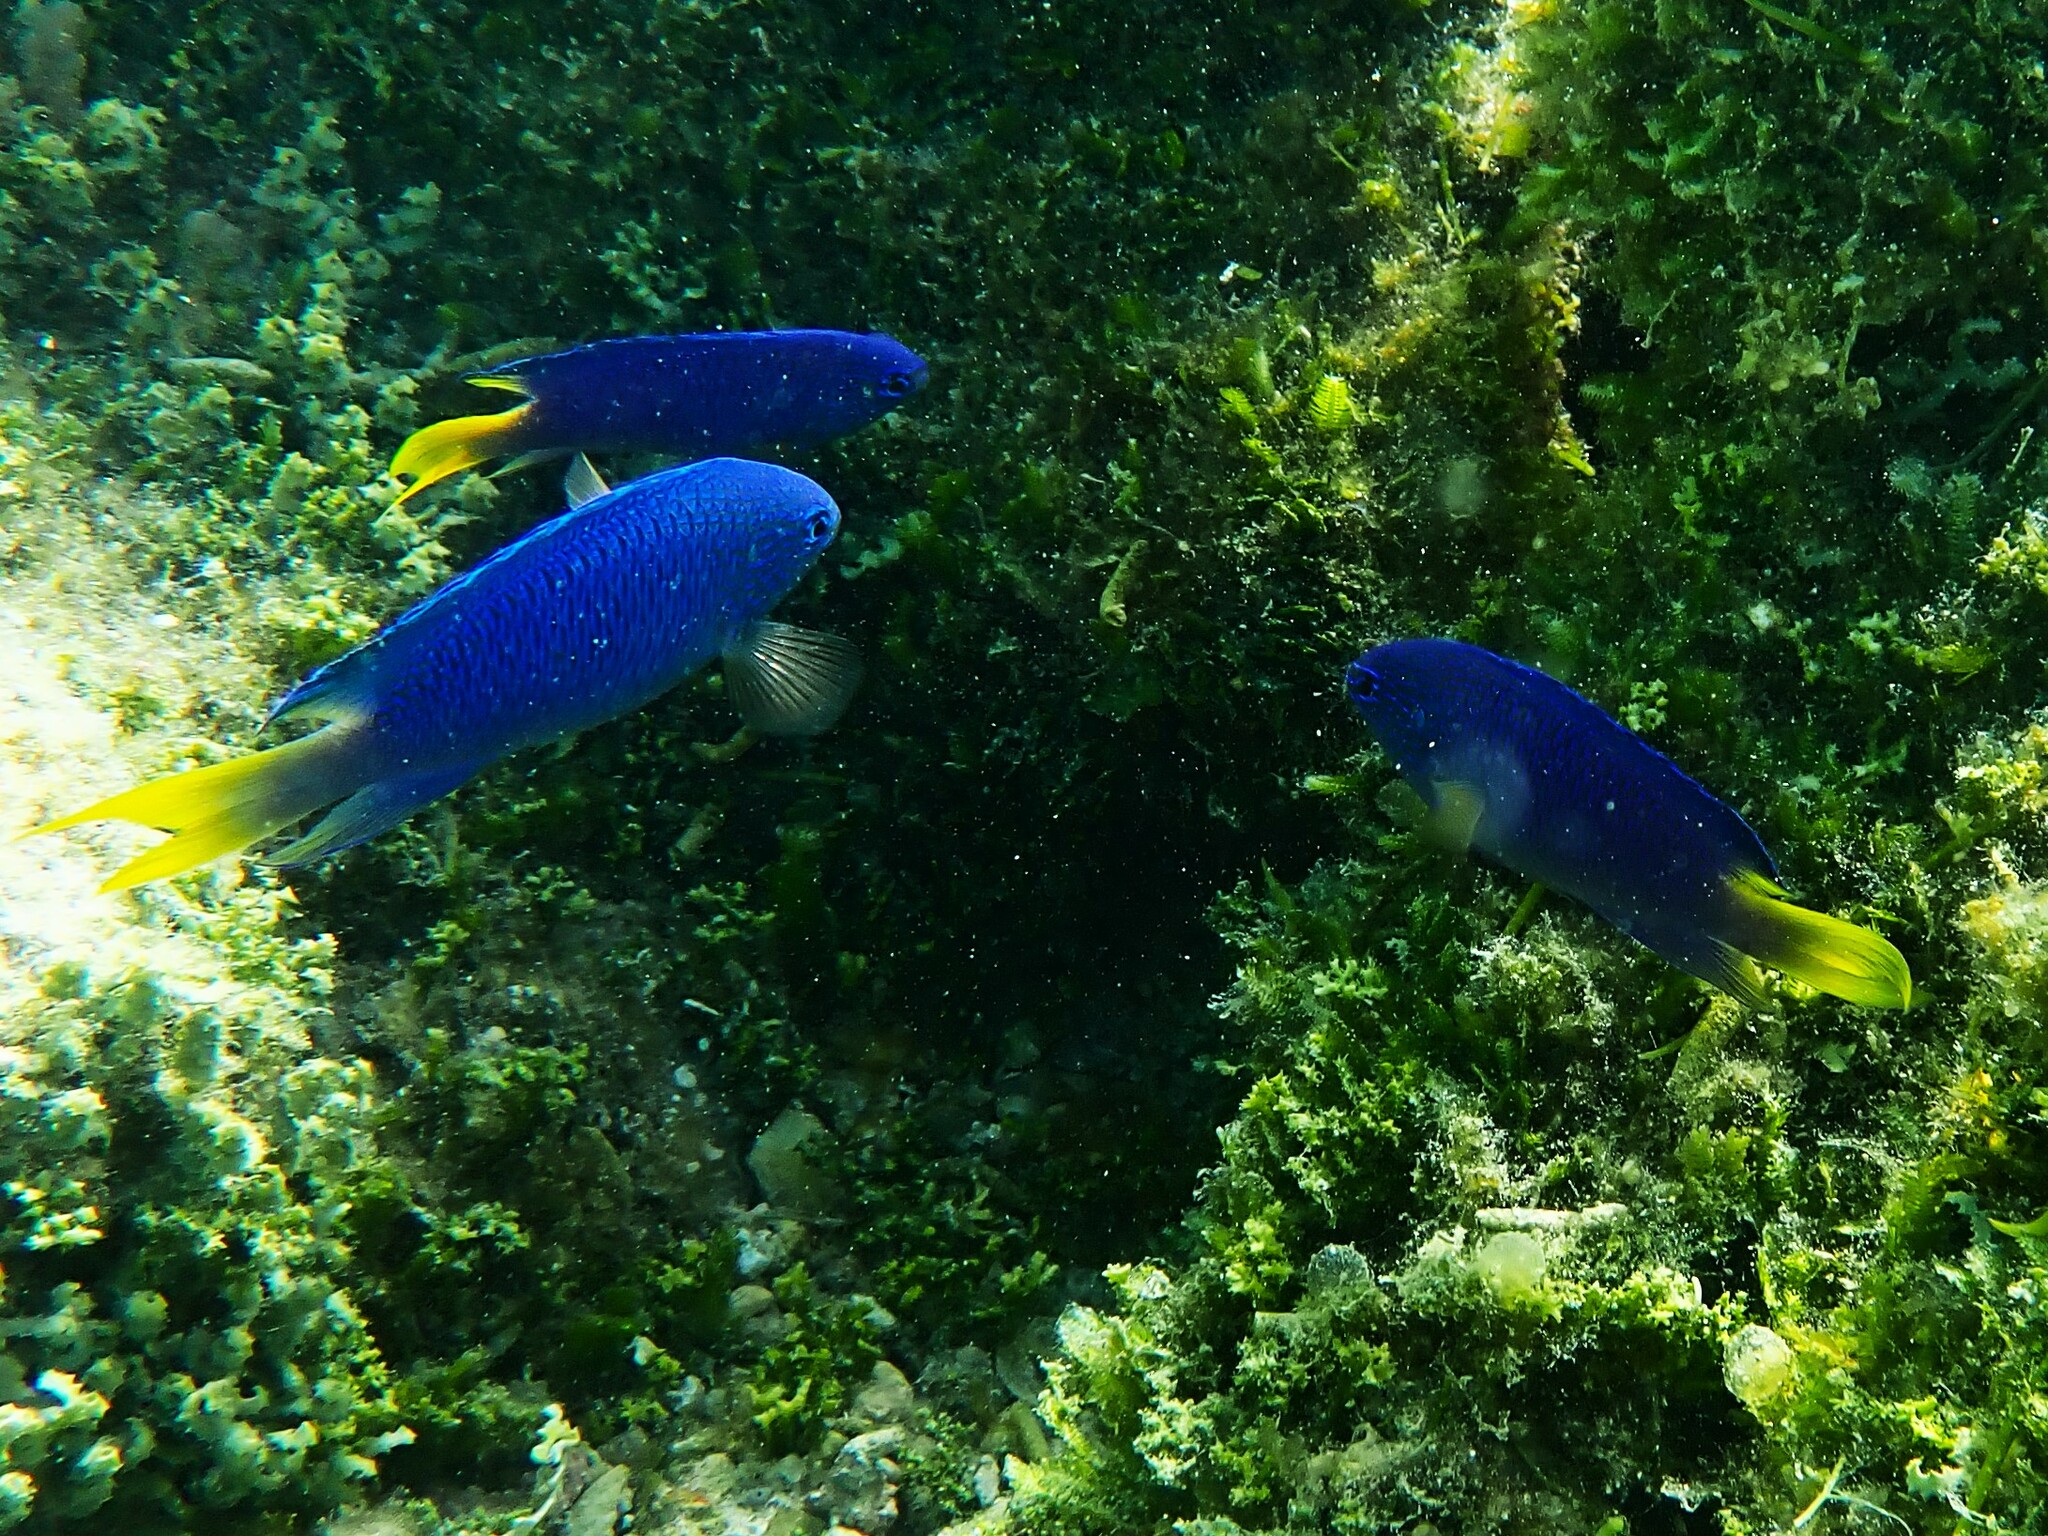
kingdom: Animalia
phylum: Chordata
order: Perciformes
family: Pomacentridae
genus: Pomacentrus
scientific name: Pomacentrus pavo
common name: Sapphire damsel
